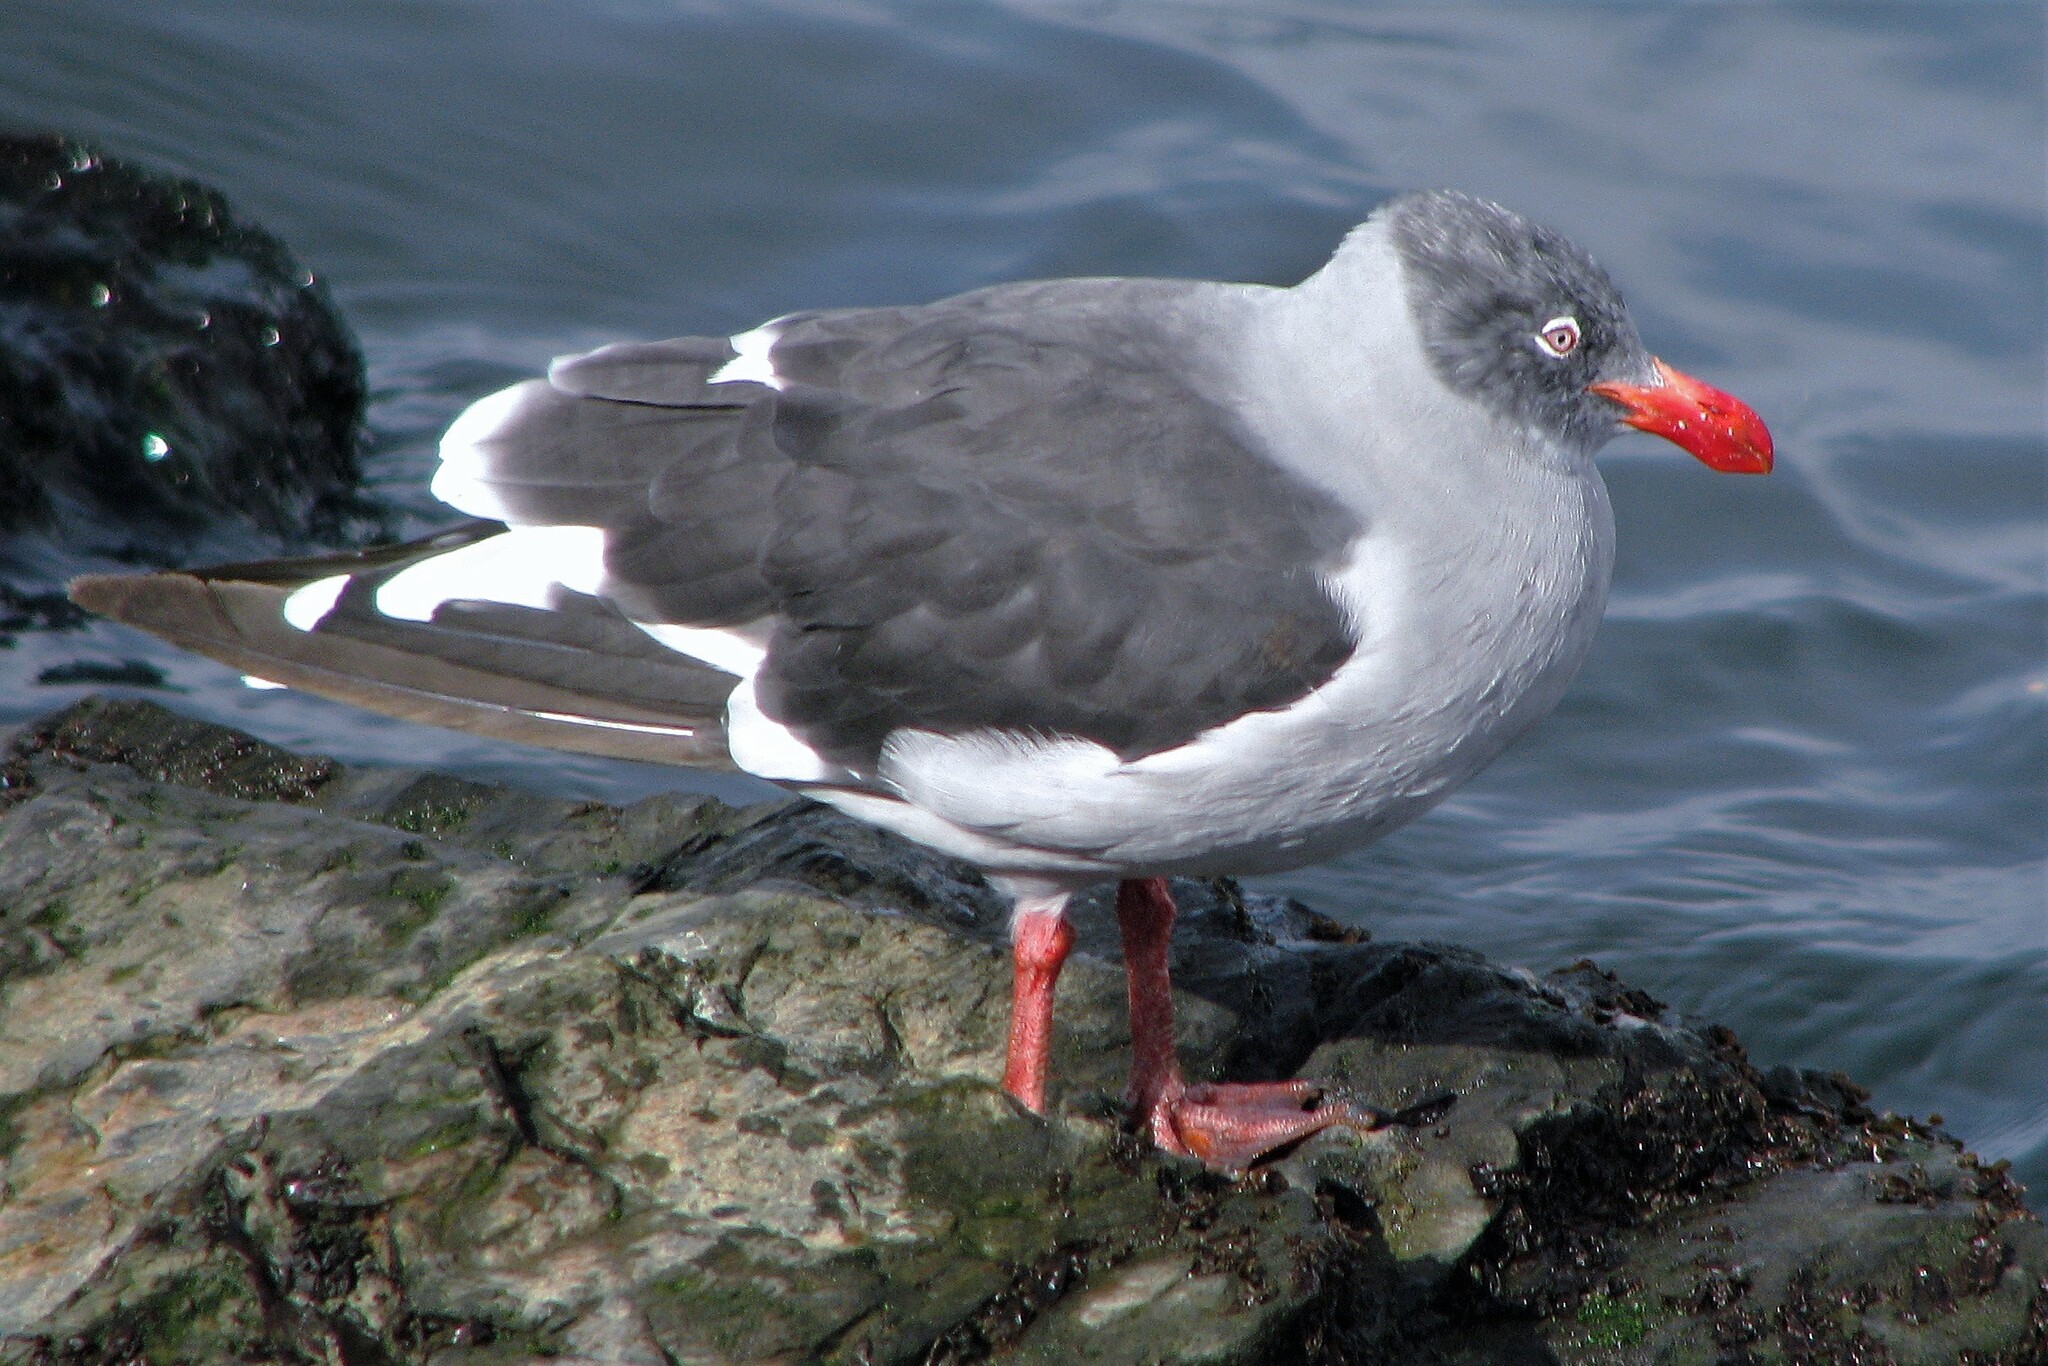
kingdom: Animalia
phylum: Chordata
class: Aves
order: Charadriiformes
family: Laridae
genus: Leucophaeus
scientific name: Leucophaeus scoresbii
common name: Dolphin gull
